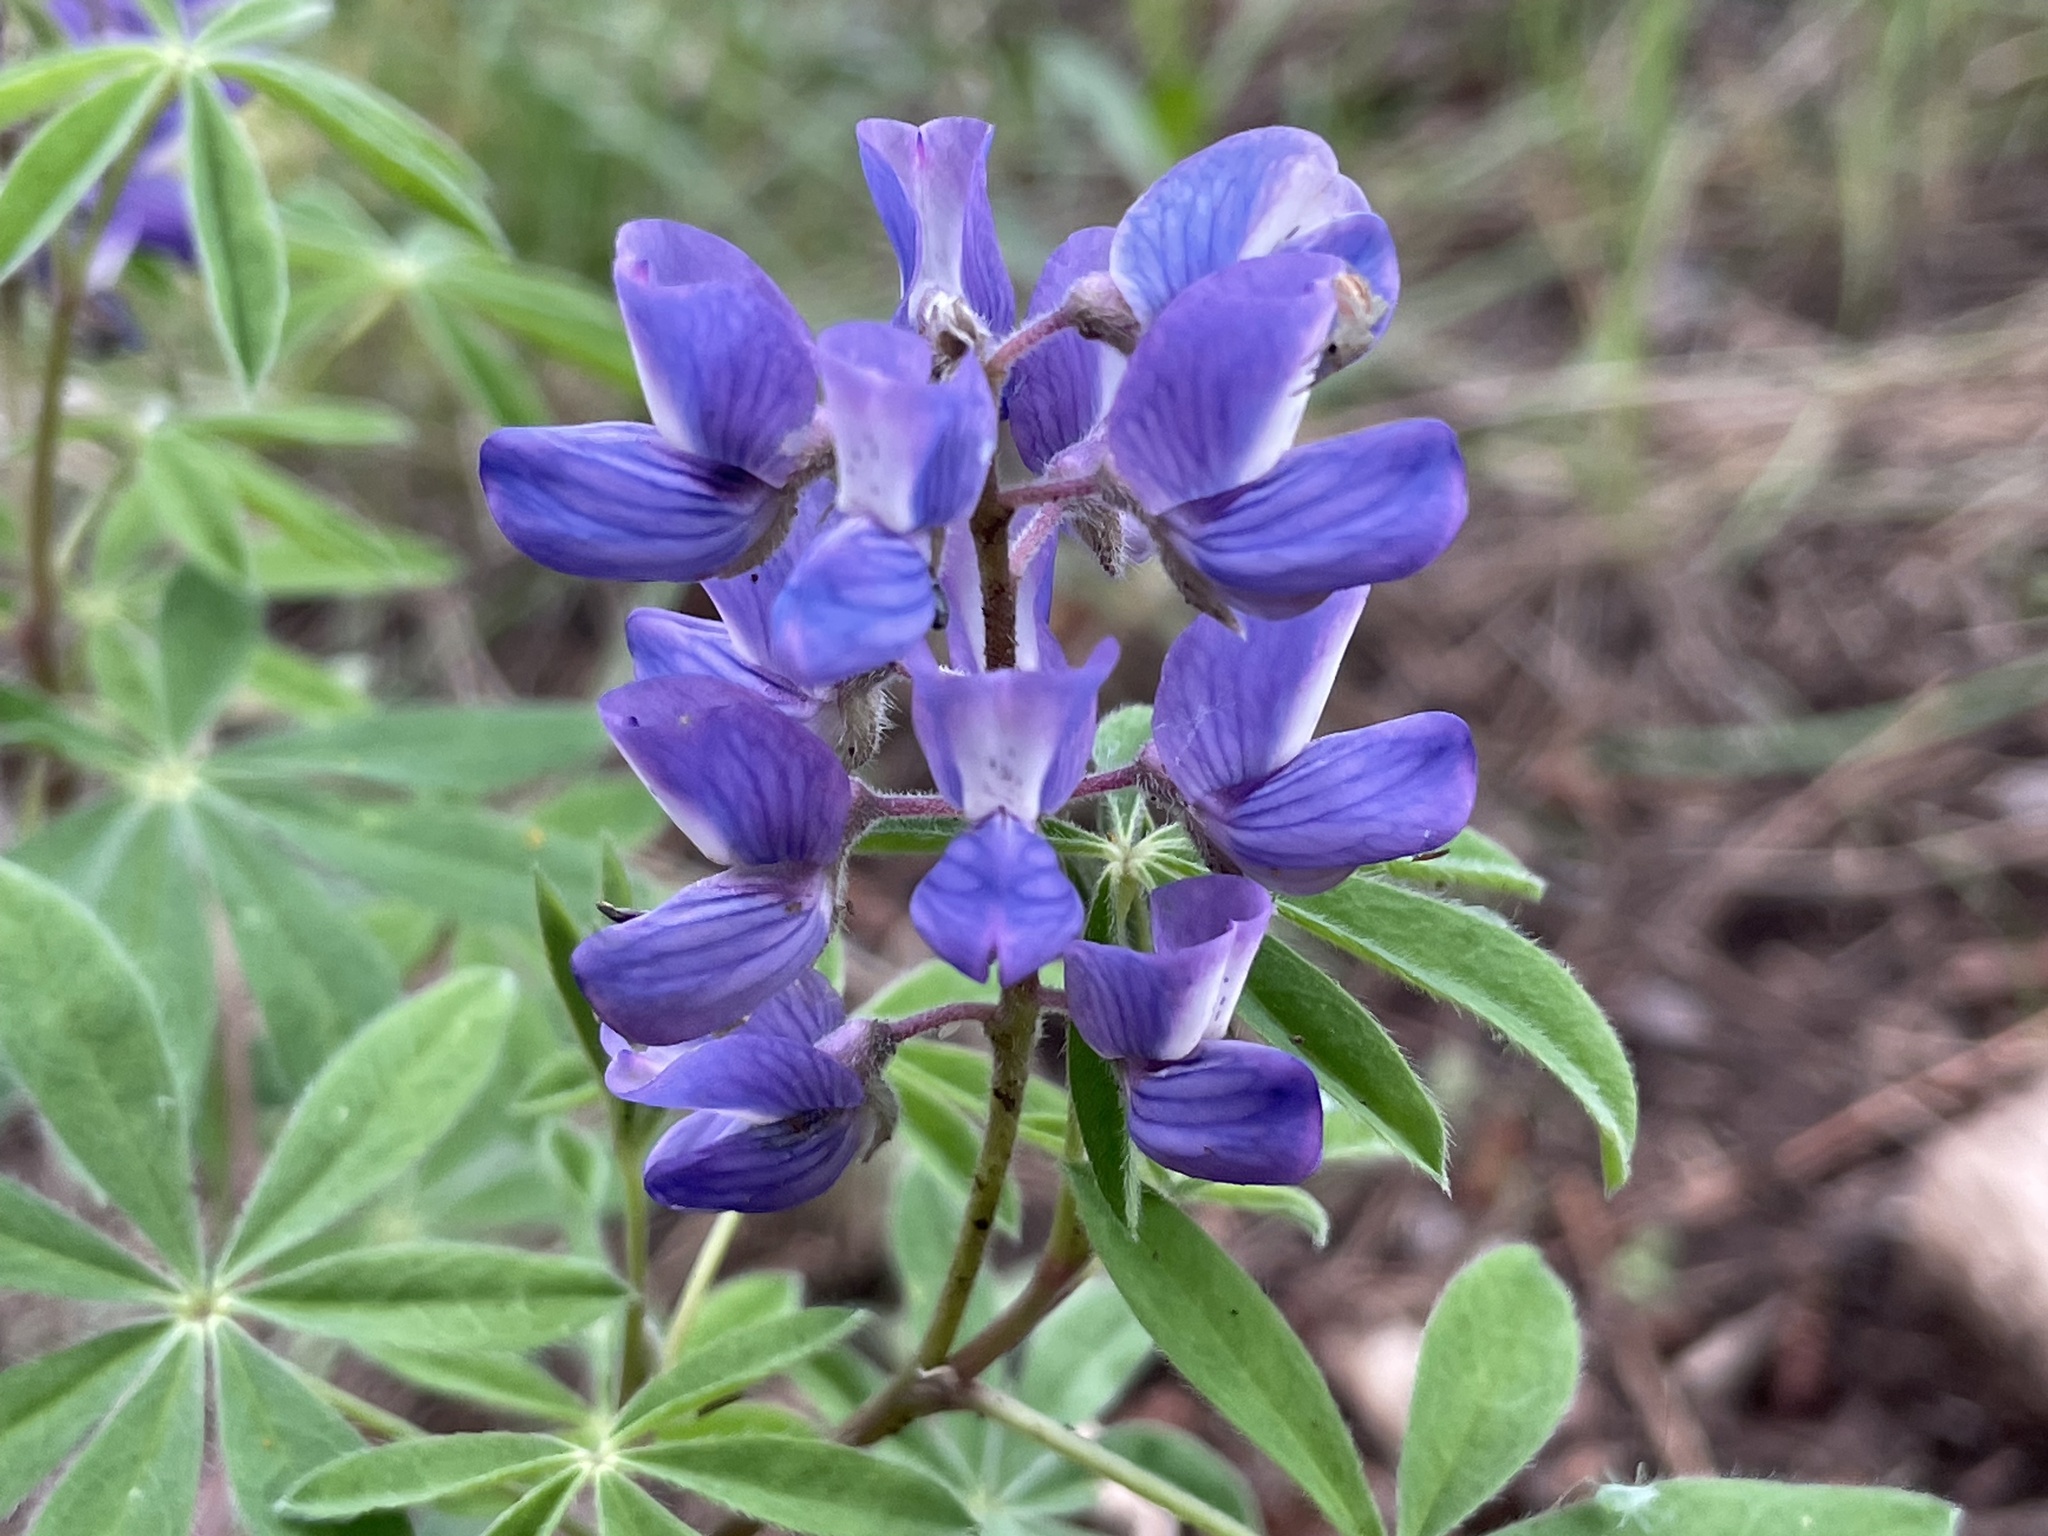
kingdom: Plantae
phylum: Tracheophyta
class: Magnoliopsida
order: Fabales
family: Fabaceae
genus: Lupinus
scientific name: Lupinus argenteus
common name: Silvery lupine
